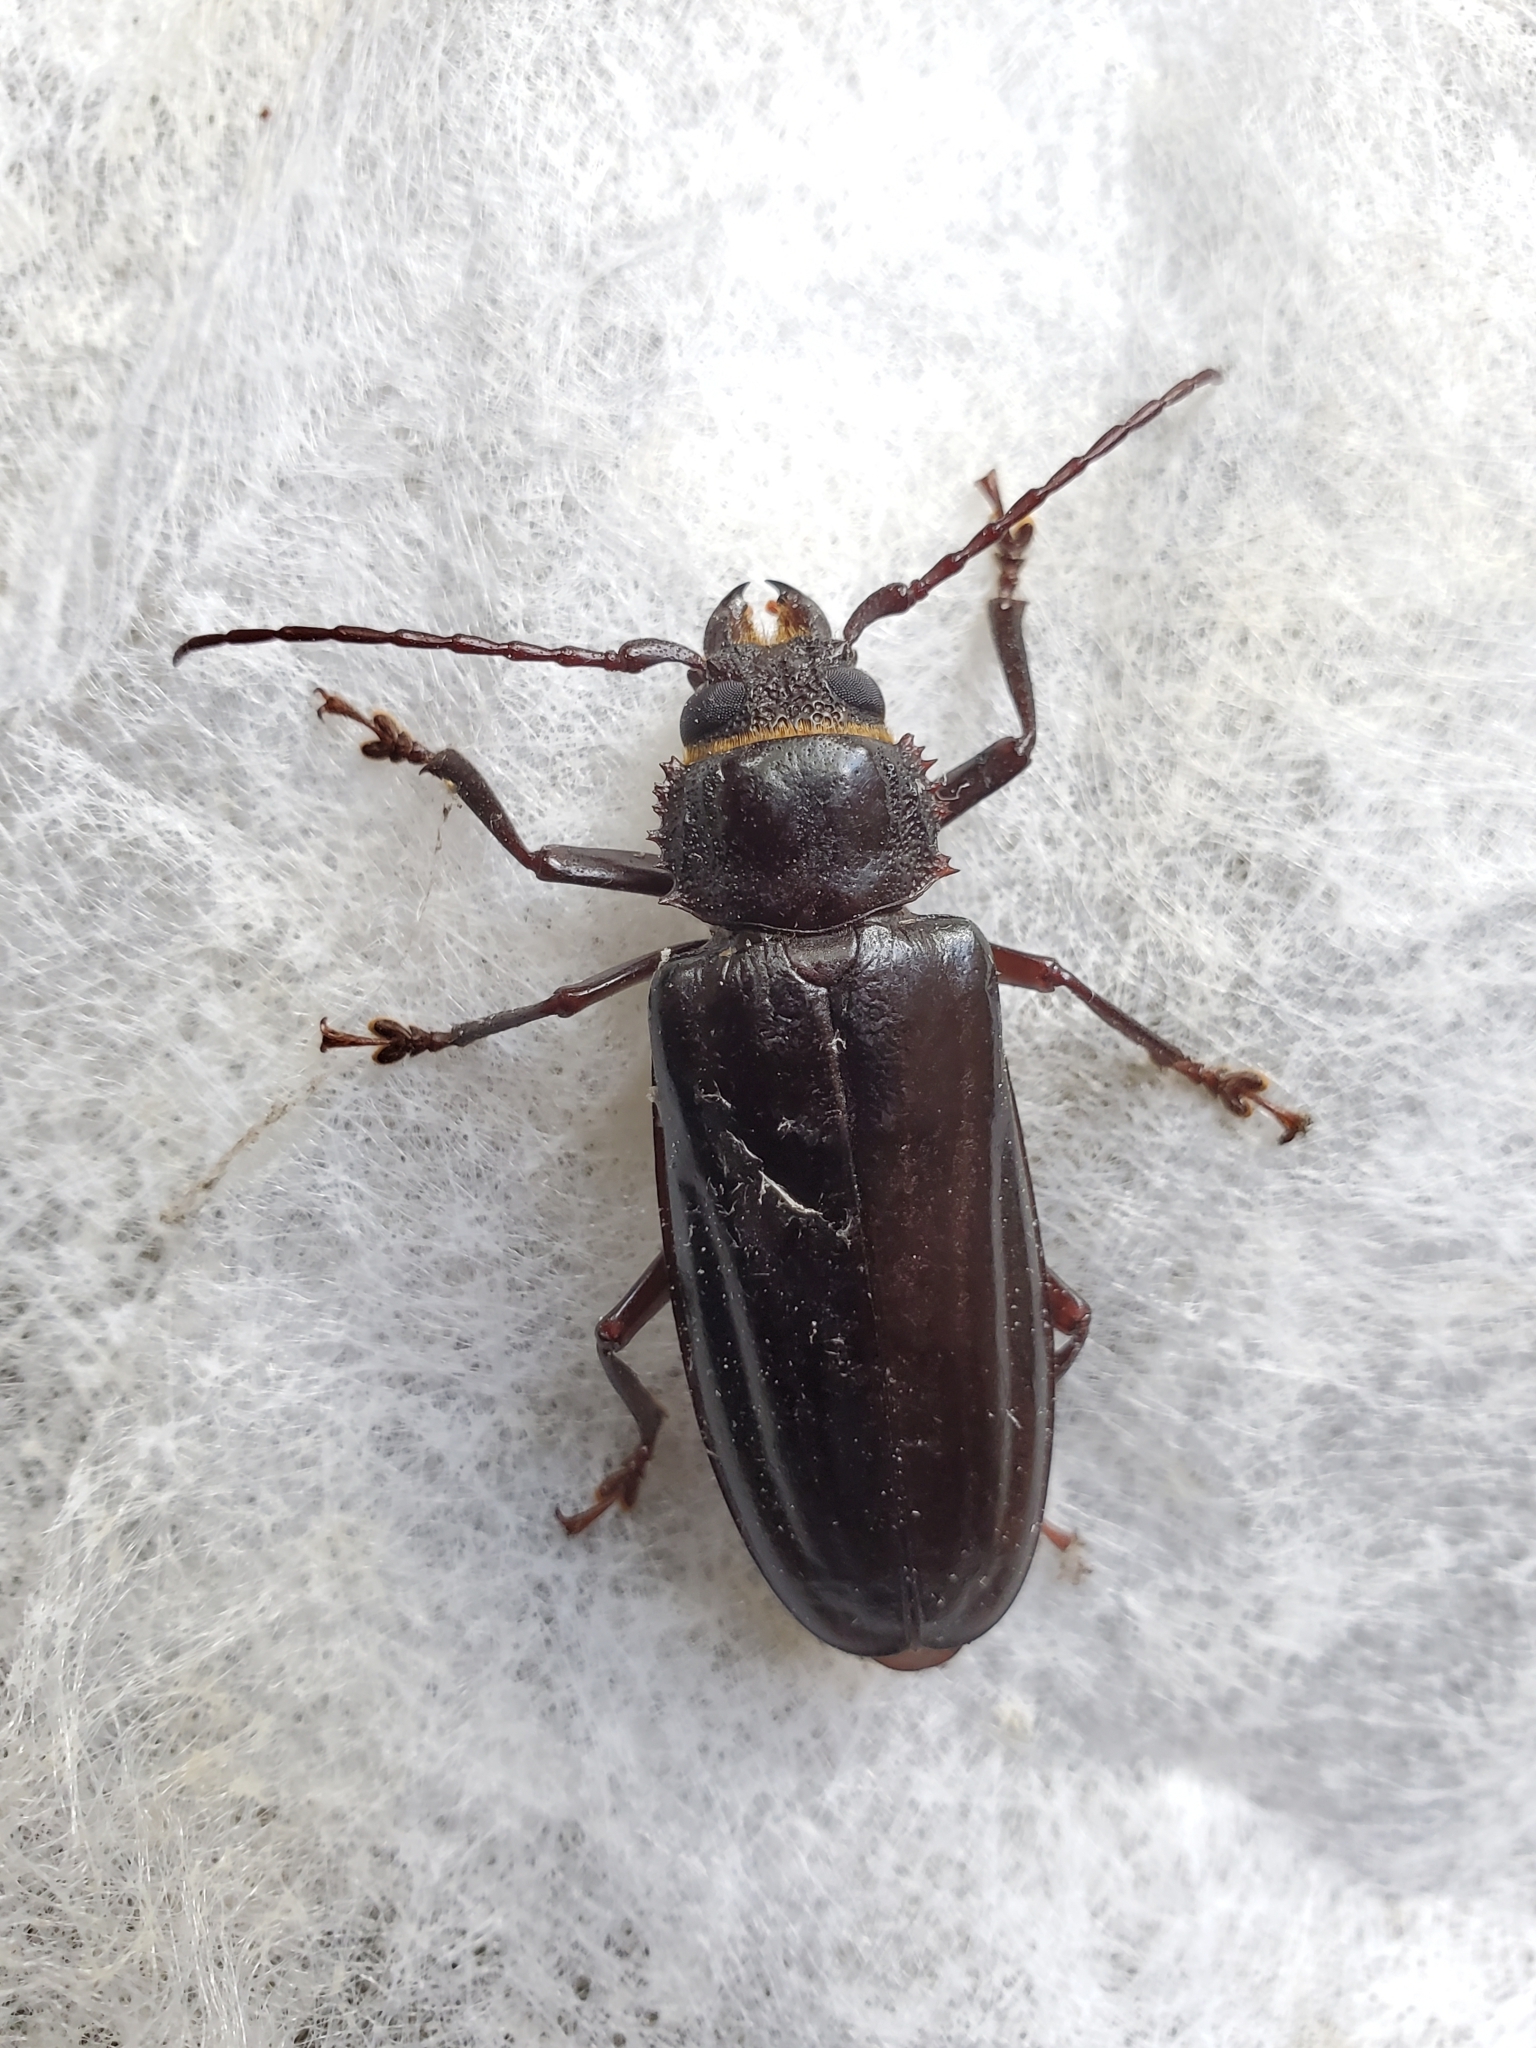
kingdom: Animalia
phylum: Arthropoda
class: Insecta
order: Coleoptera
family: Cerambycidae
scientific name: Cerambycidae
